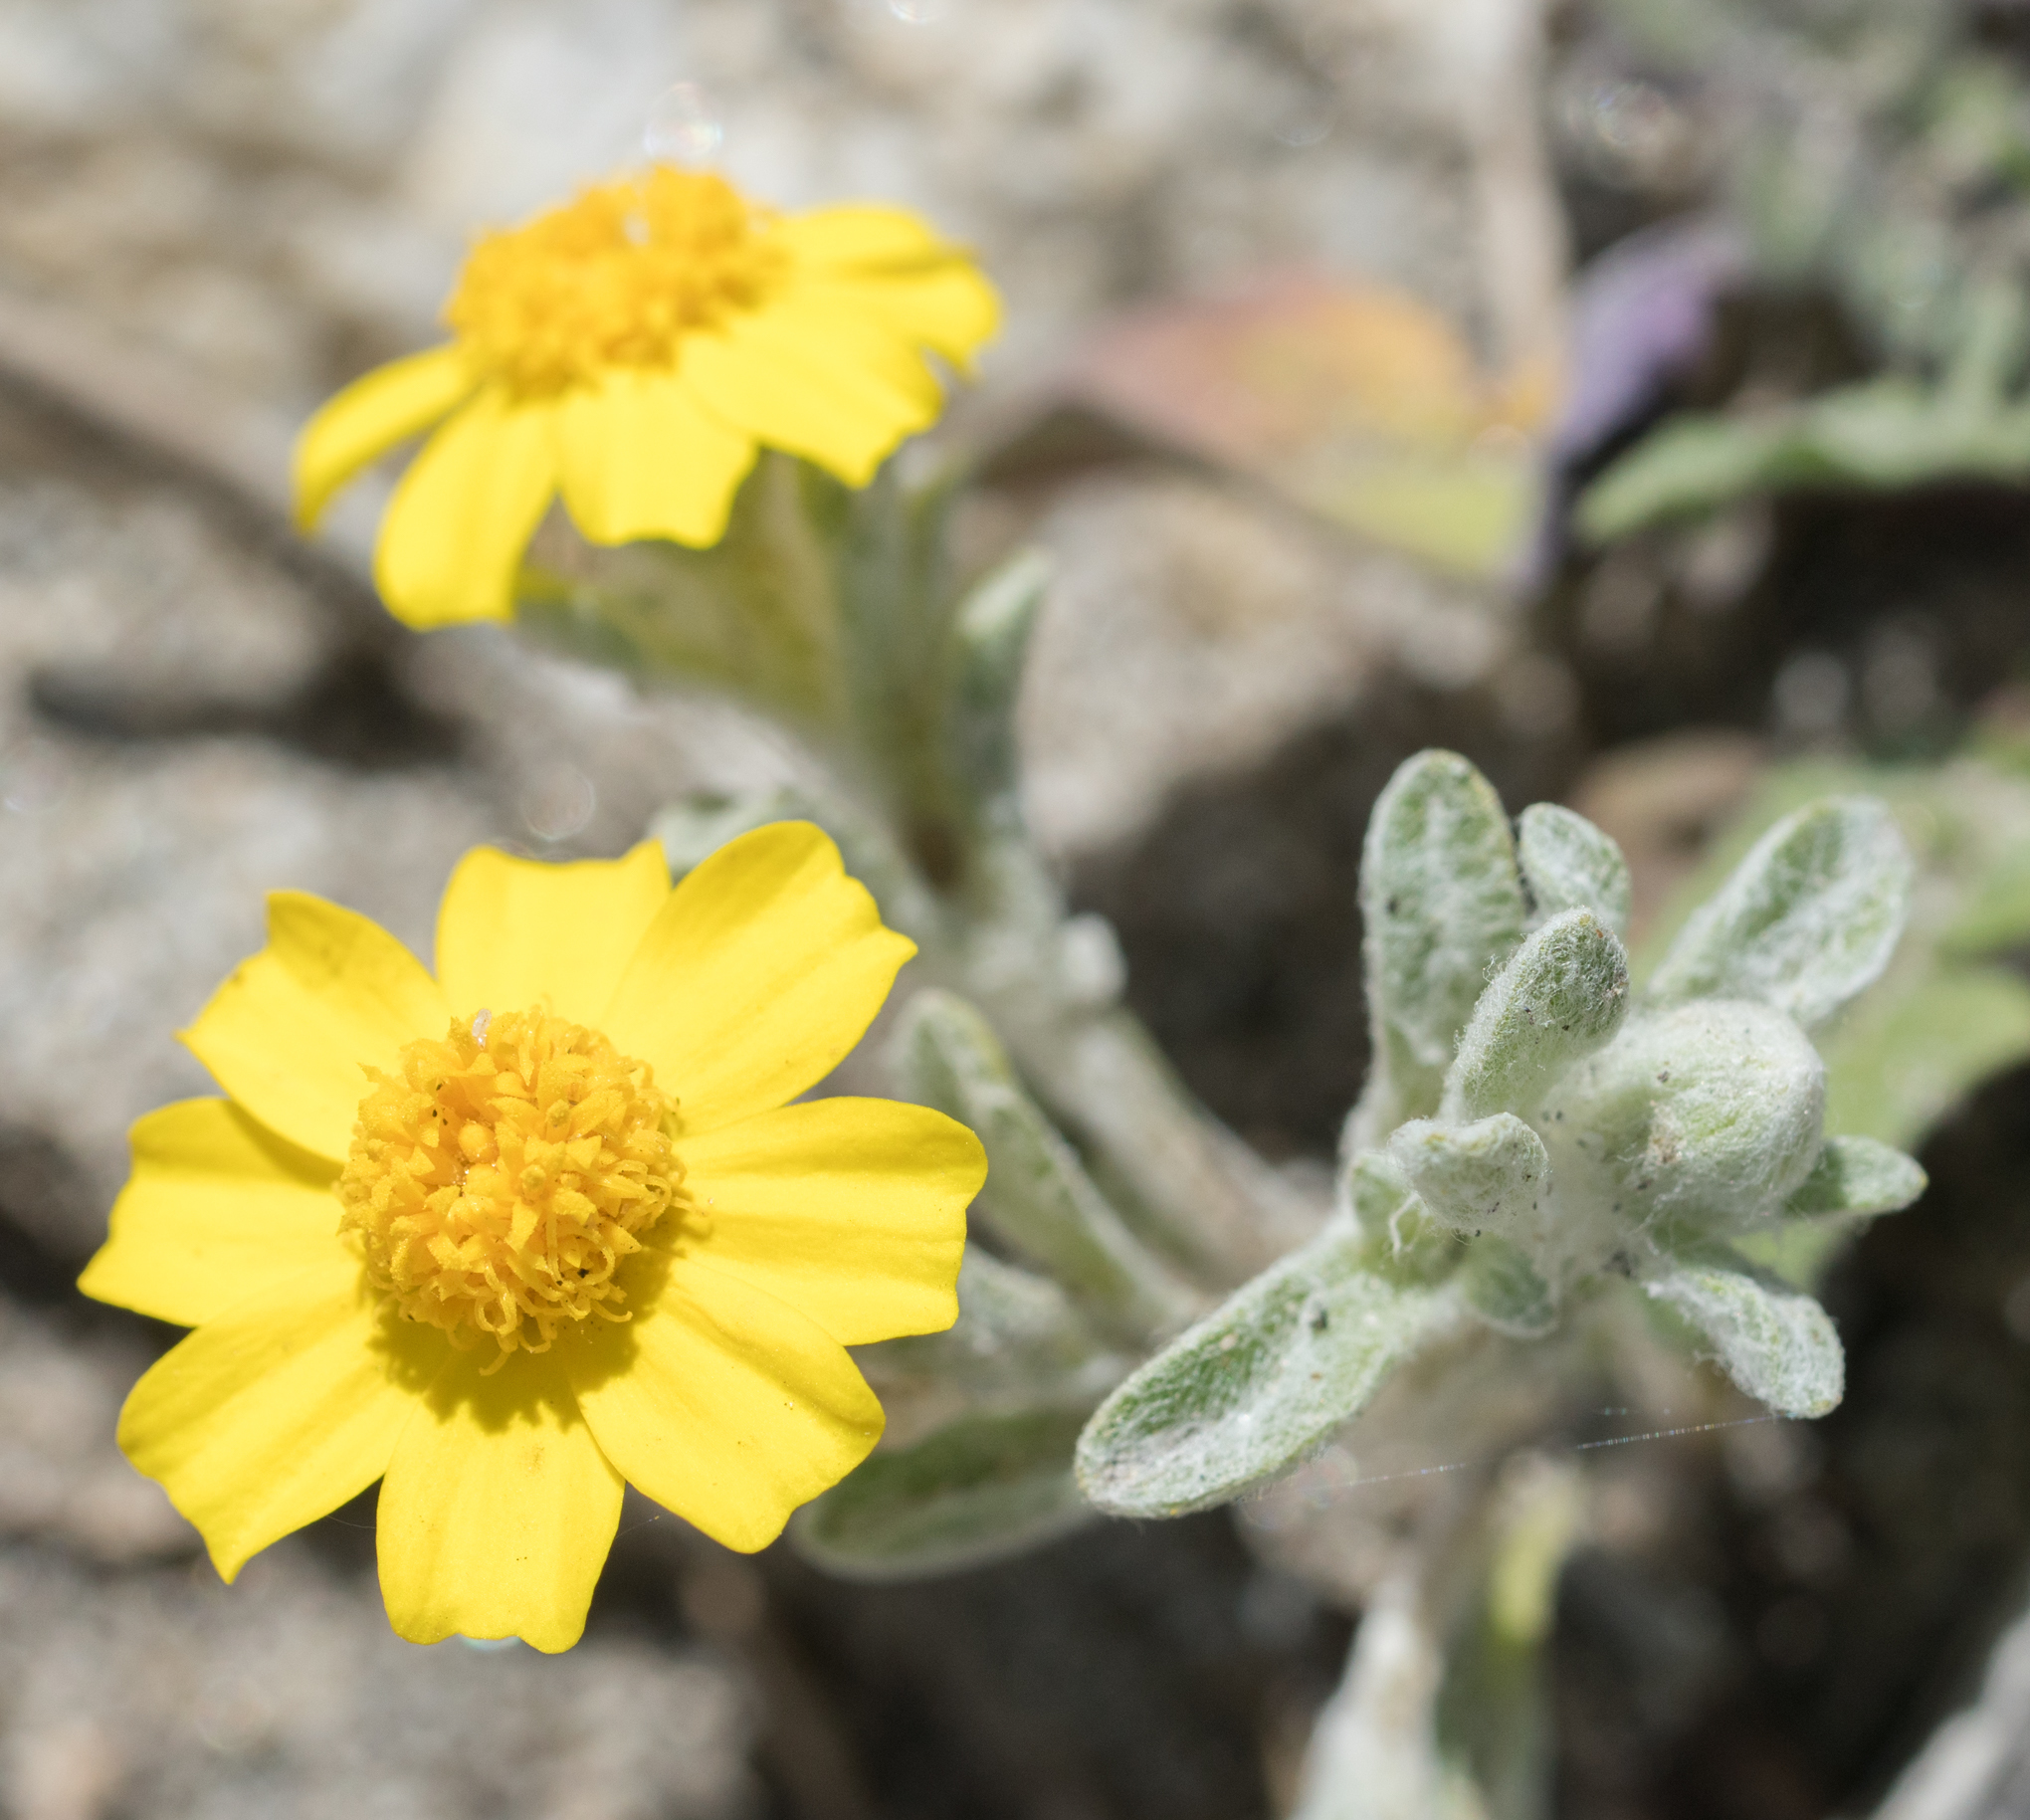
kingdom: Plantae
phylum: Tracheophyta
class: Magnoliopsida
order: Asterales
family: Asteraceae
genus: Eriophyllum
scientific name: Eriophyllum wallacei
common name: Wallace's woolly daisy
